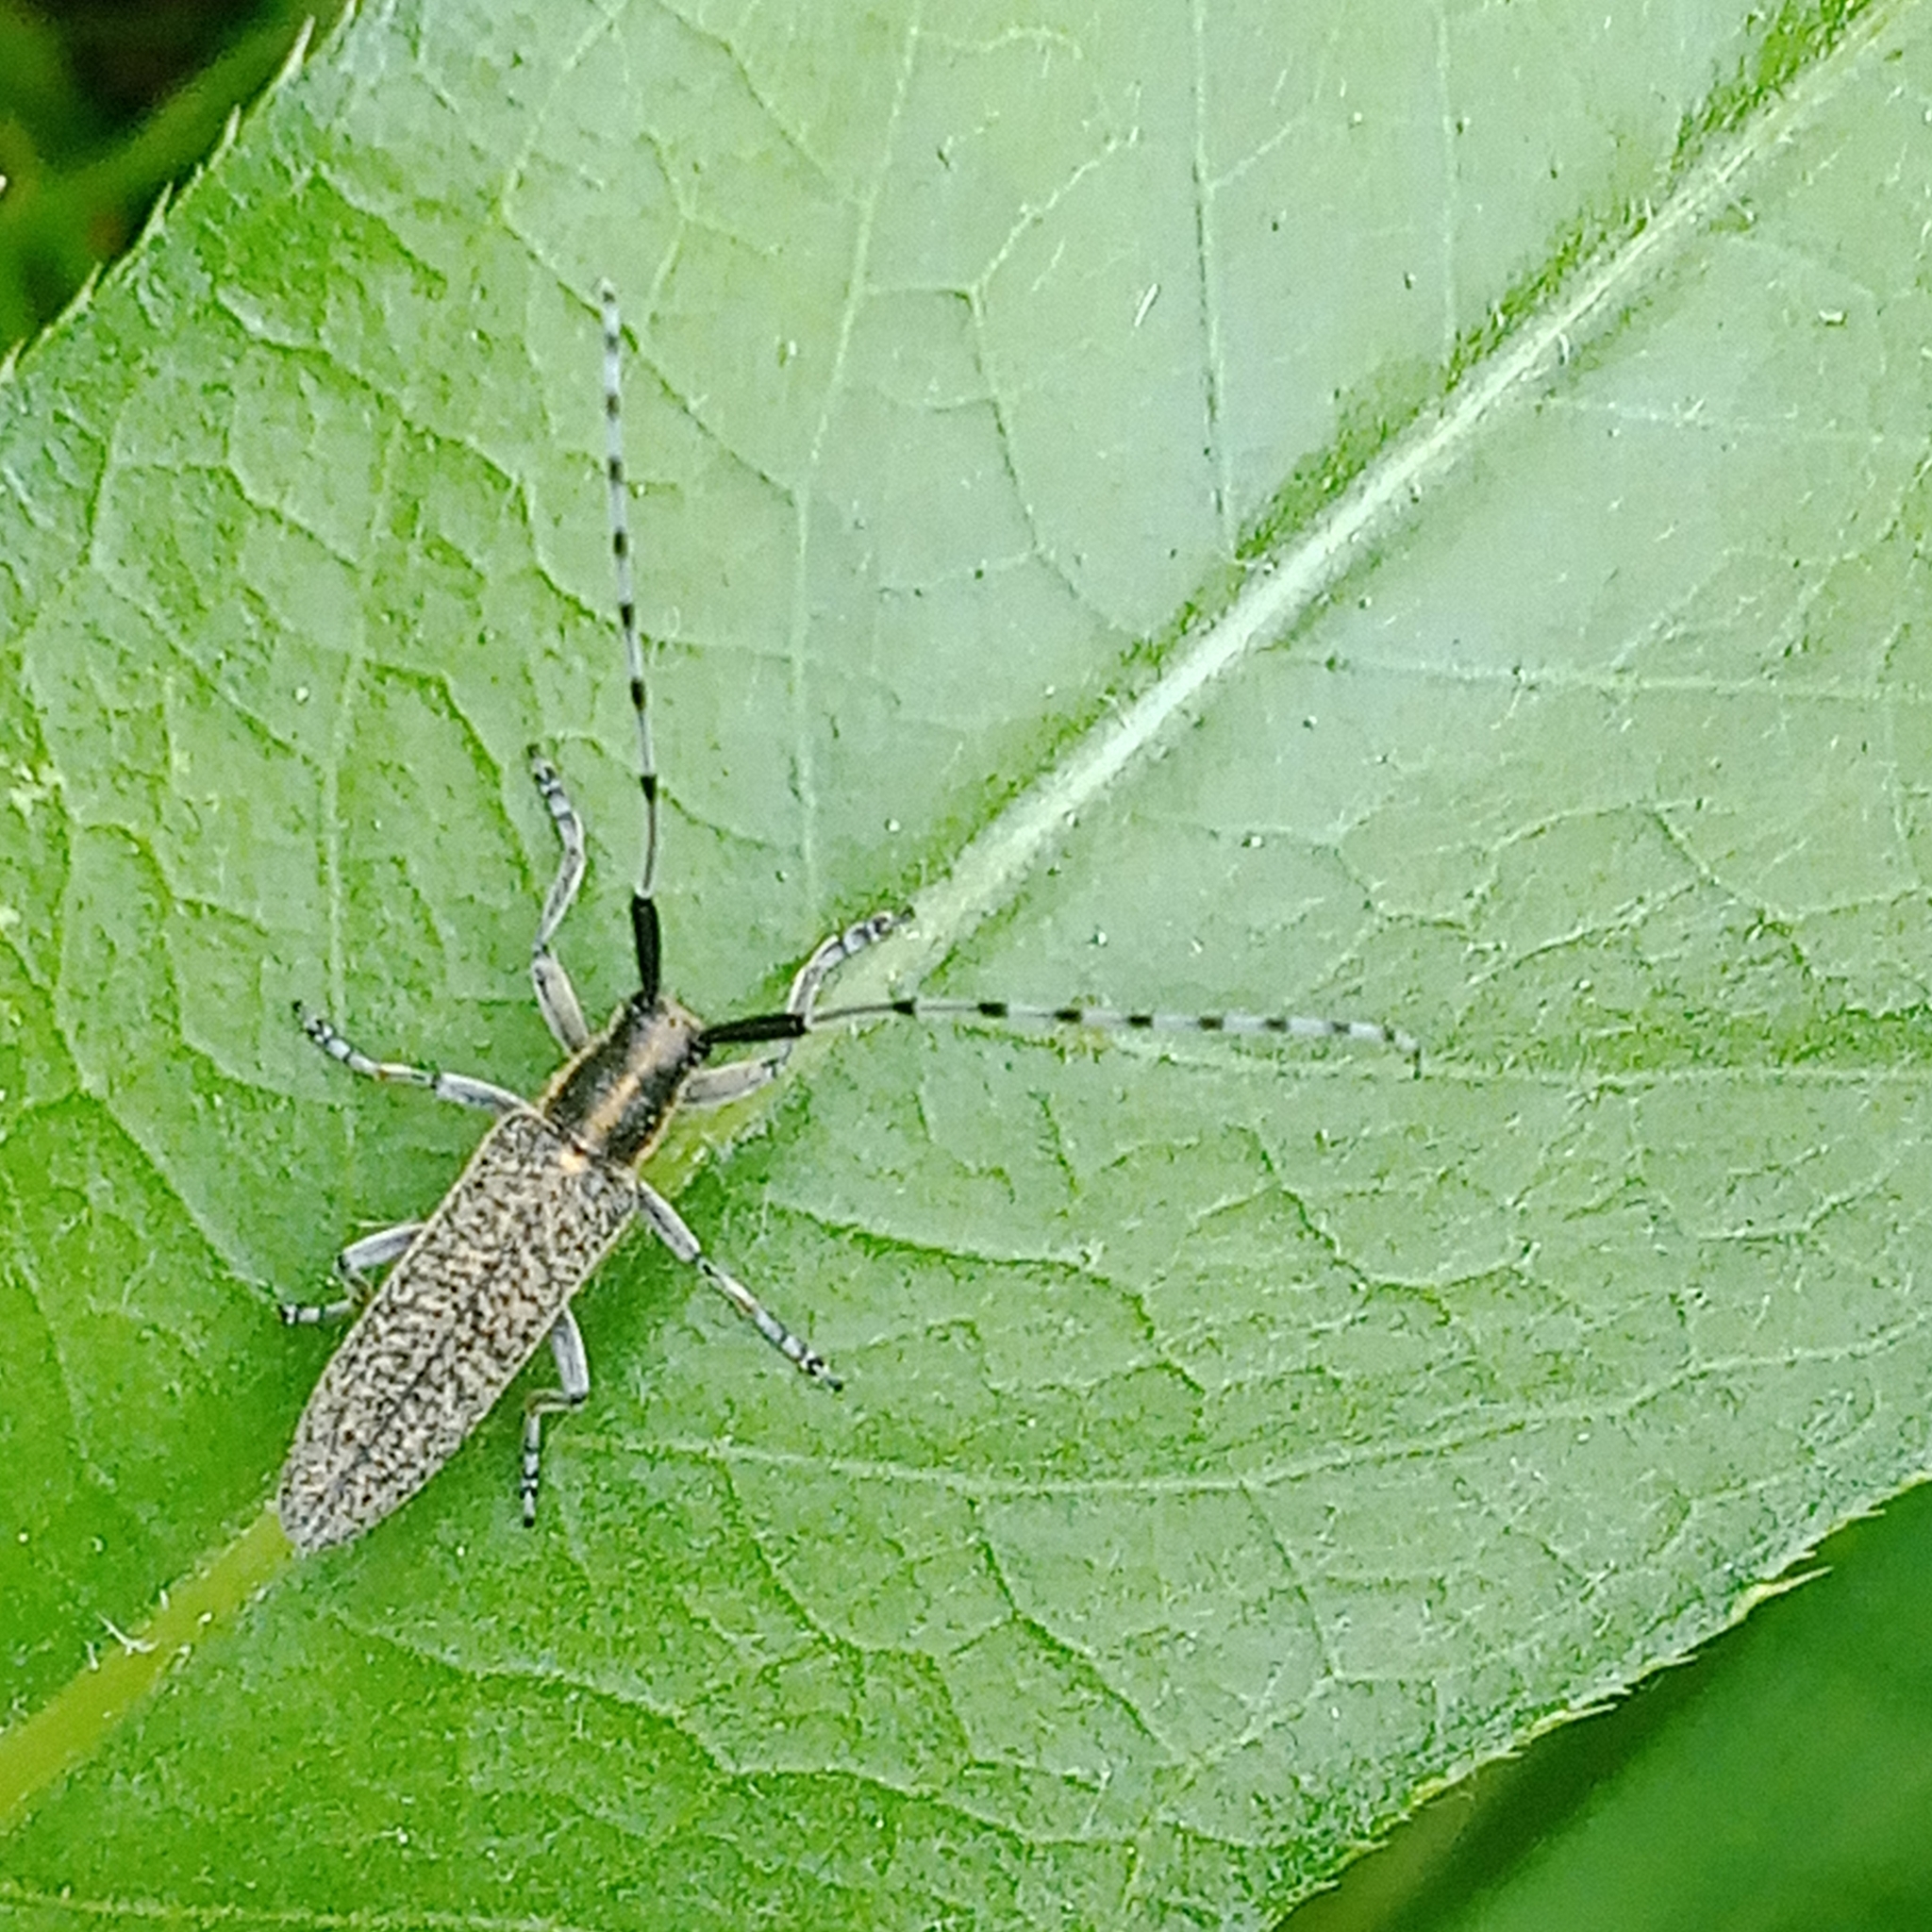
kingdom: Animalia
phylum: Arthropoda
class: Insecta
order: Coleoptera
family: Cerambycidae
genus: Agapanthia
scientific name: Agapanthia villosoviridescens
